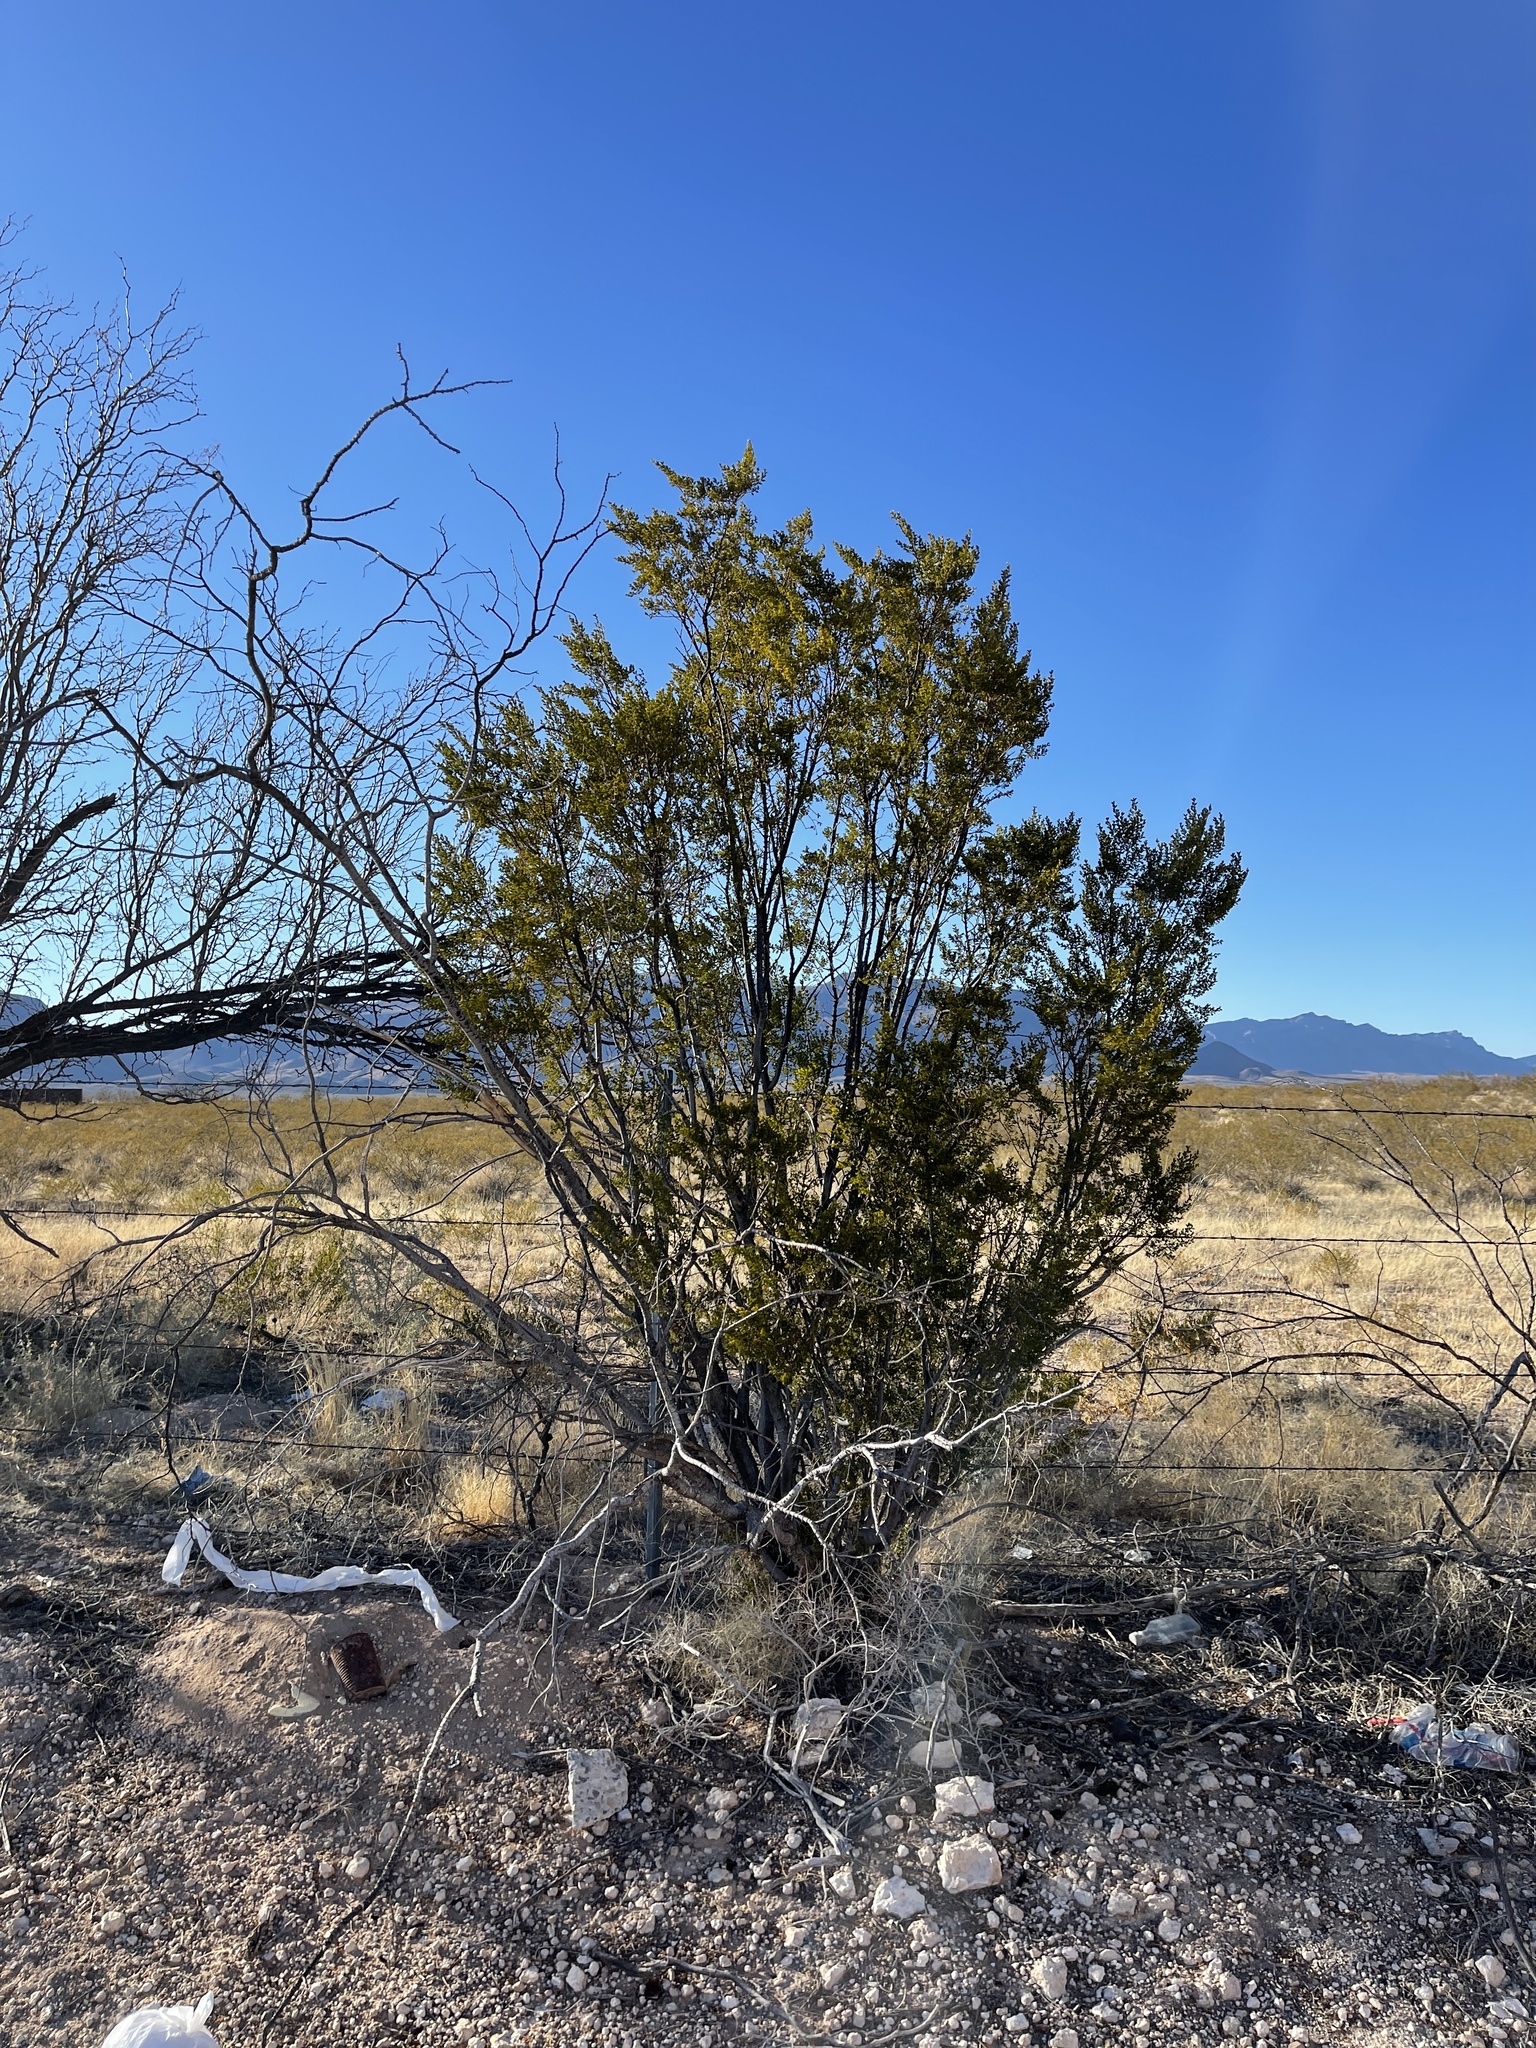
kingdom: Plantae
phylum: Tracheophyta
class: Magnoliopsida
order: Zygophyllales
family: Zygophyllaceae
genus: Larrea
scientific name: Larrea tridentata
